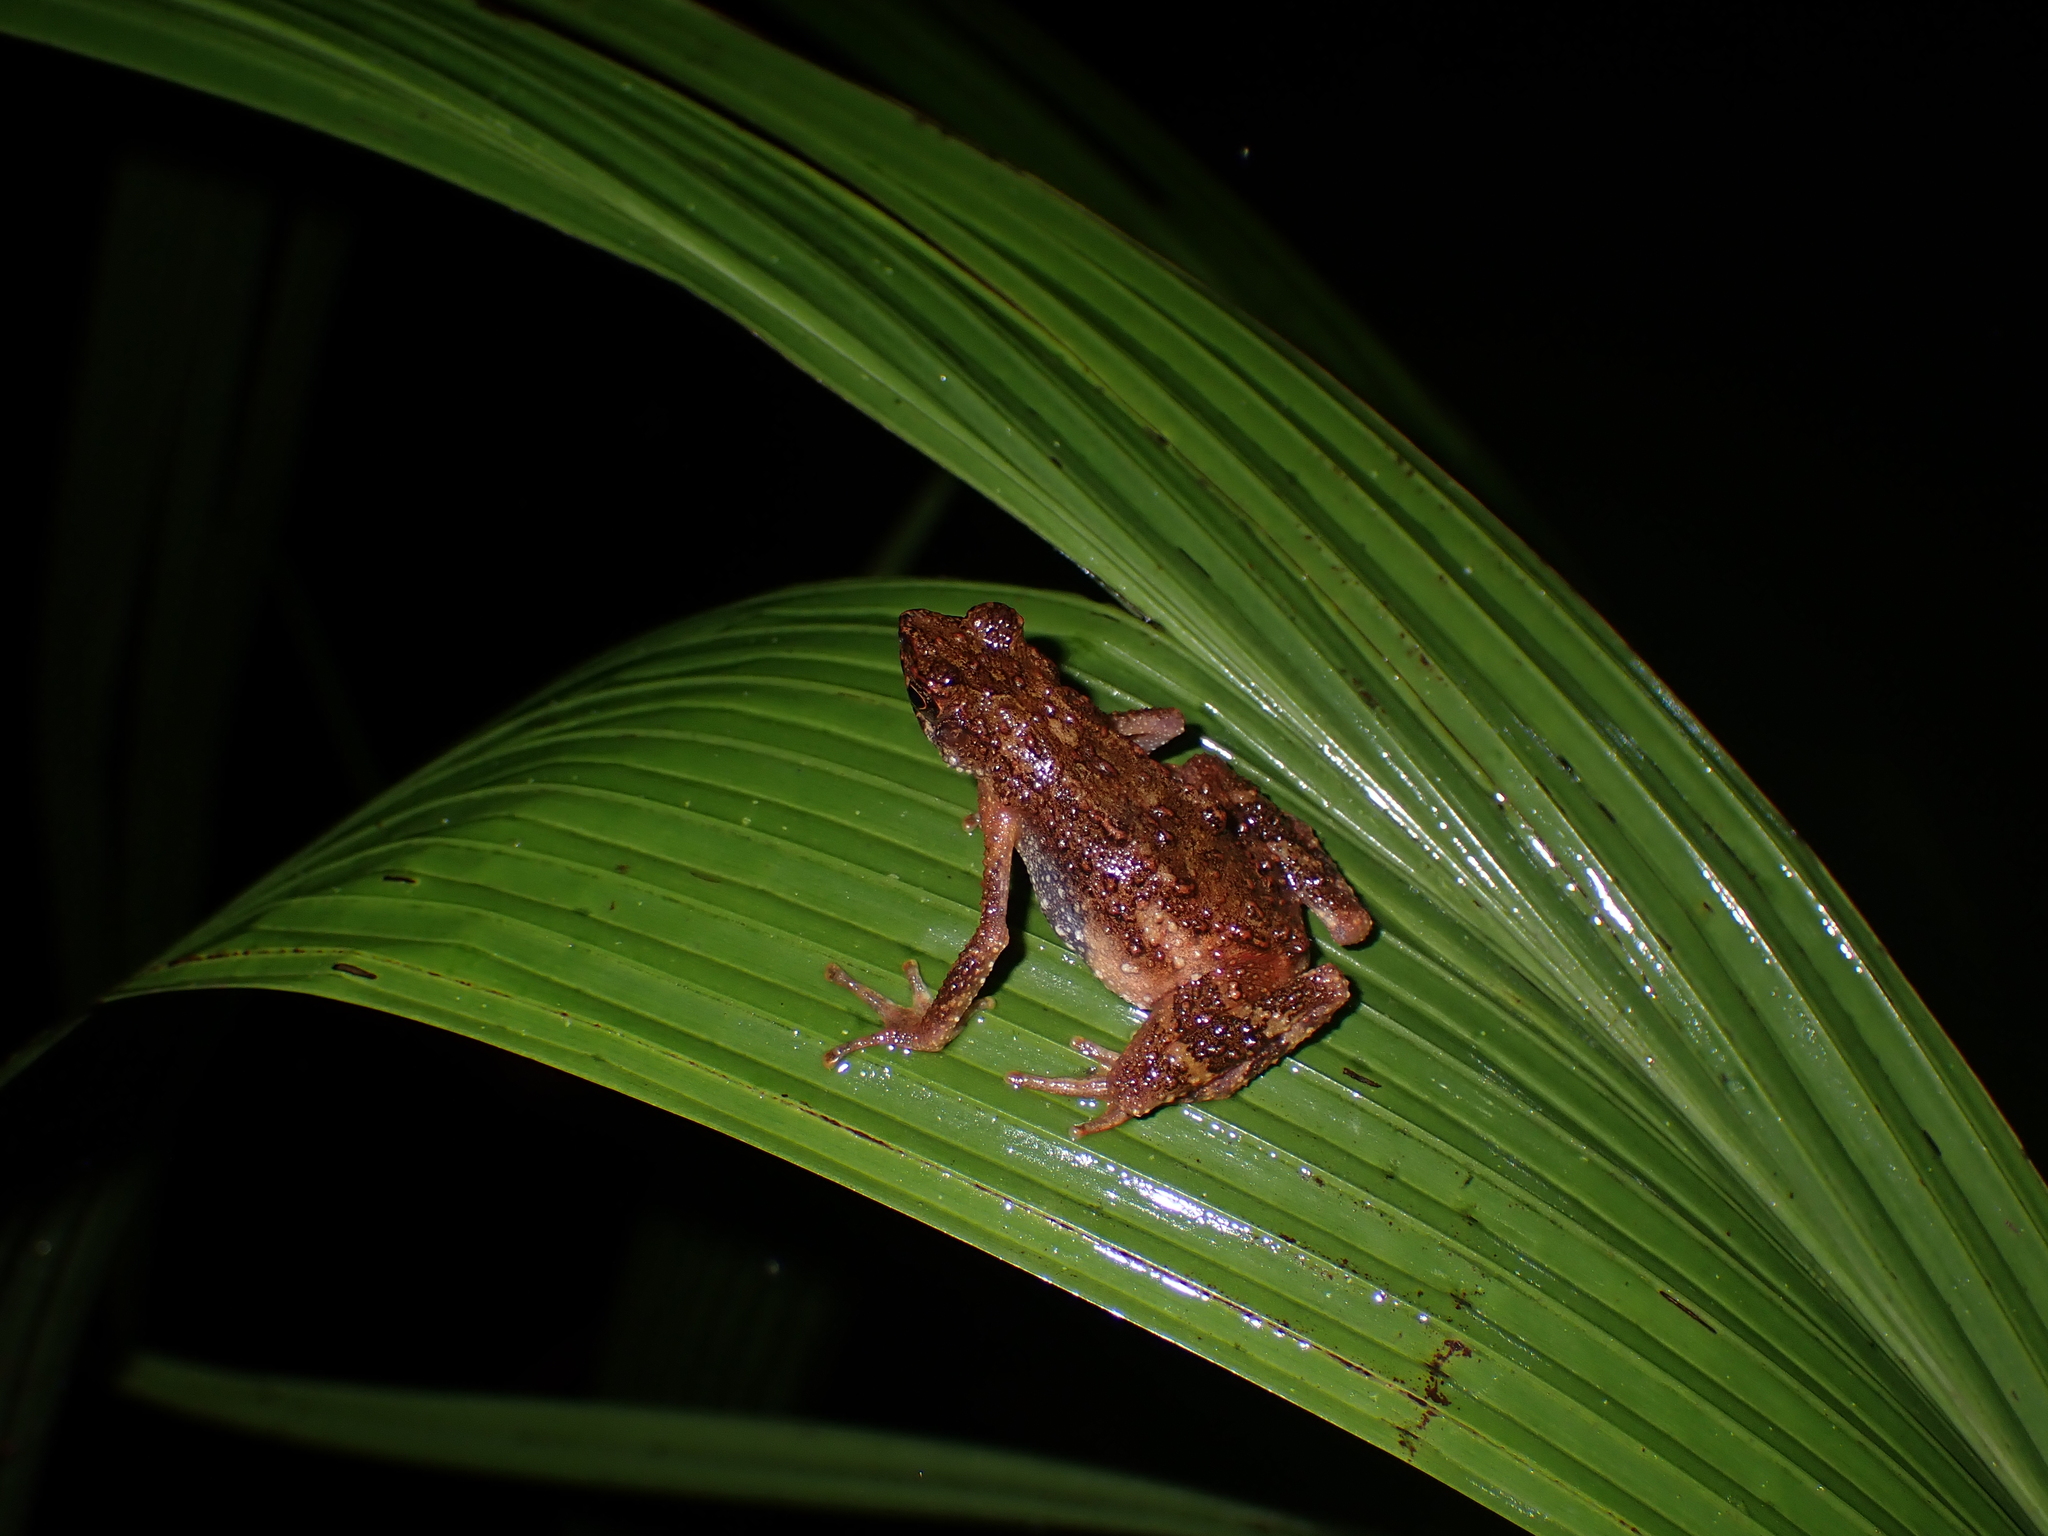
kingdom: Animalia
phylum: Chordata
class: Amphibia
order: Anura
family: Bufonidae
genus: Ansonia
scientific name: Ansonia hanitschi
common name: Kadamaian stream toad
